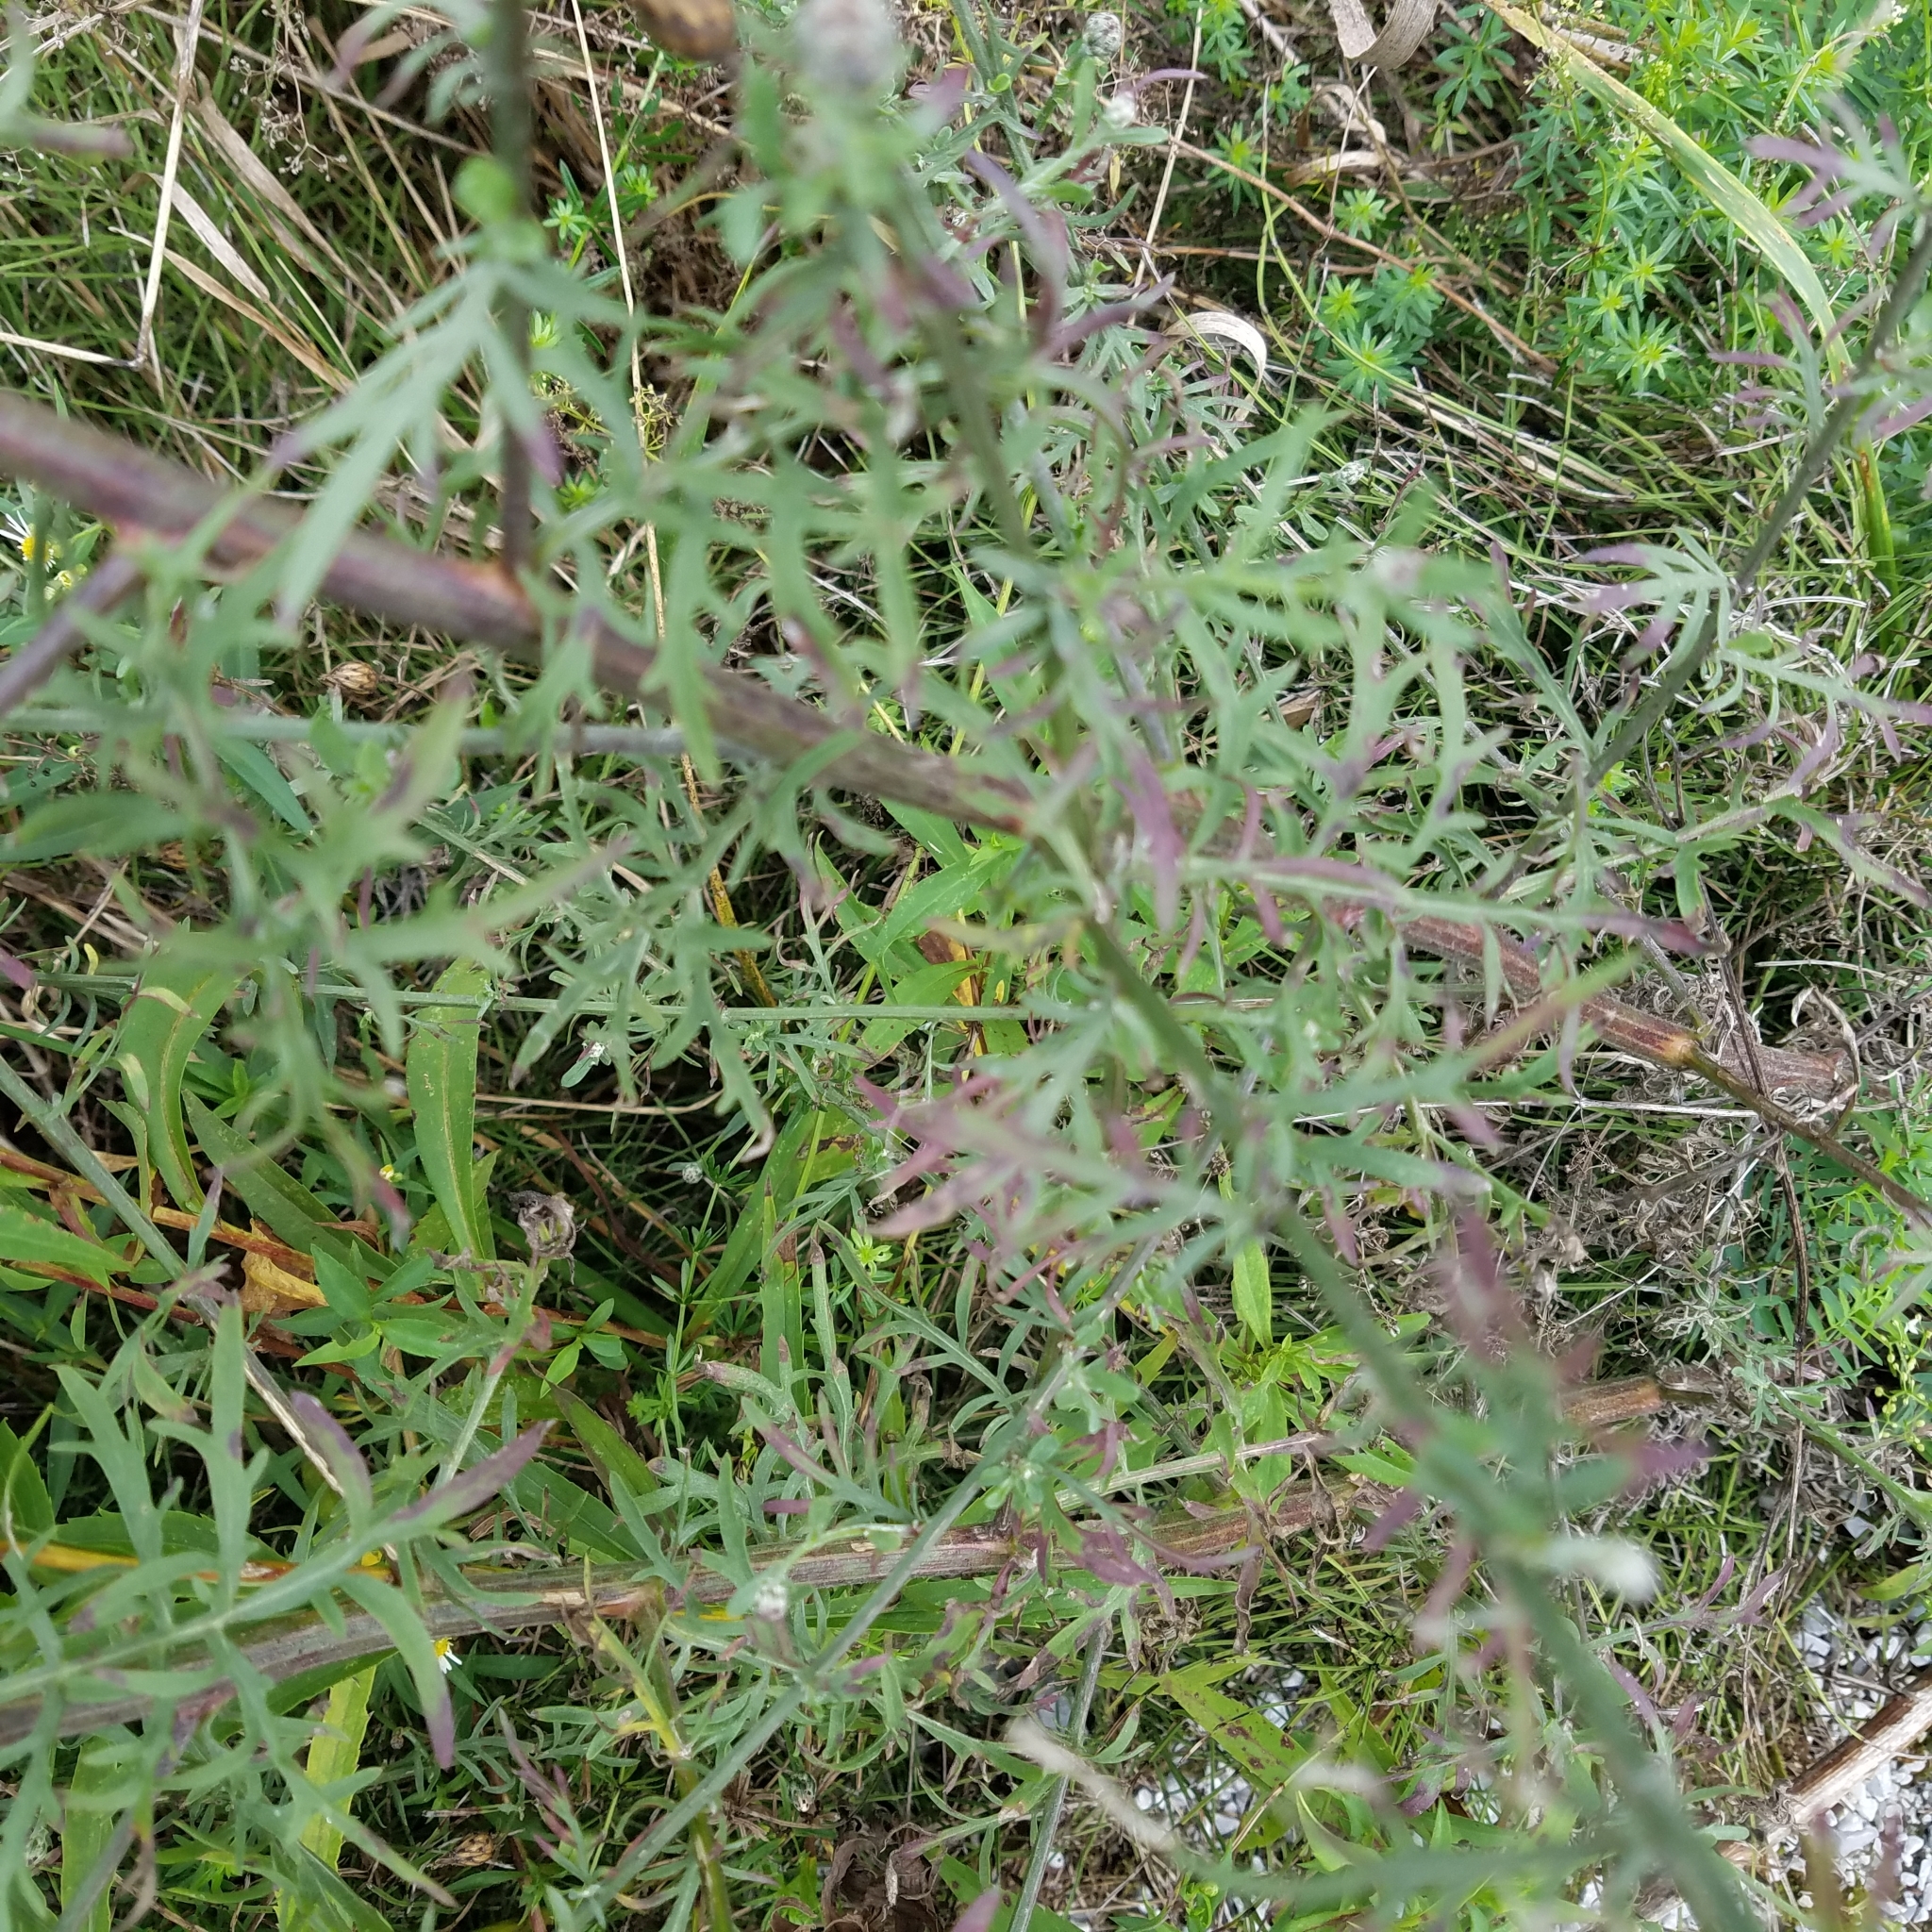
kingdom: Plantae
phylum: Tracheophyta
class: Magnoliopsida
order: Asterales
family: Asteraceae
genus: Centaurea
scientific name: Centaurea stoebe
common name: Spotted knapweed
